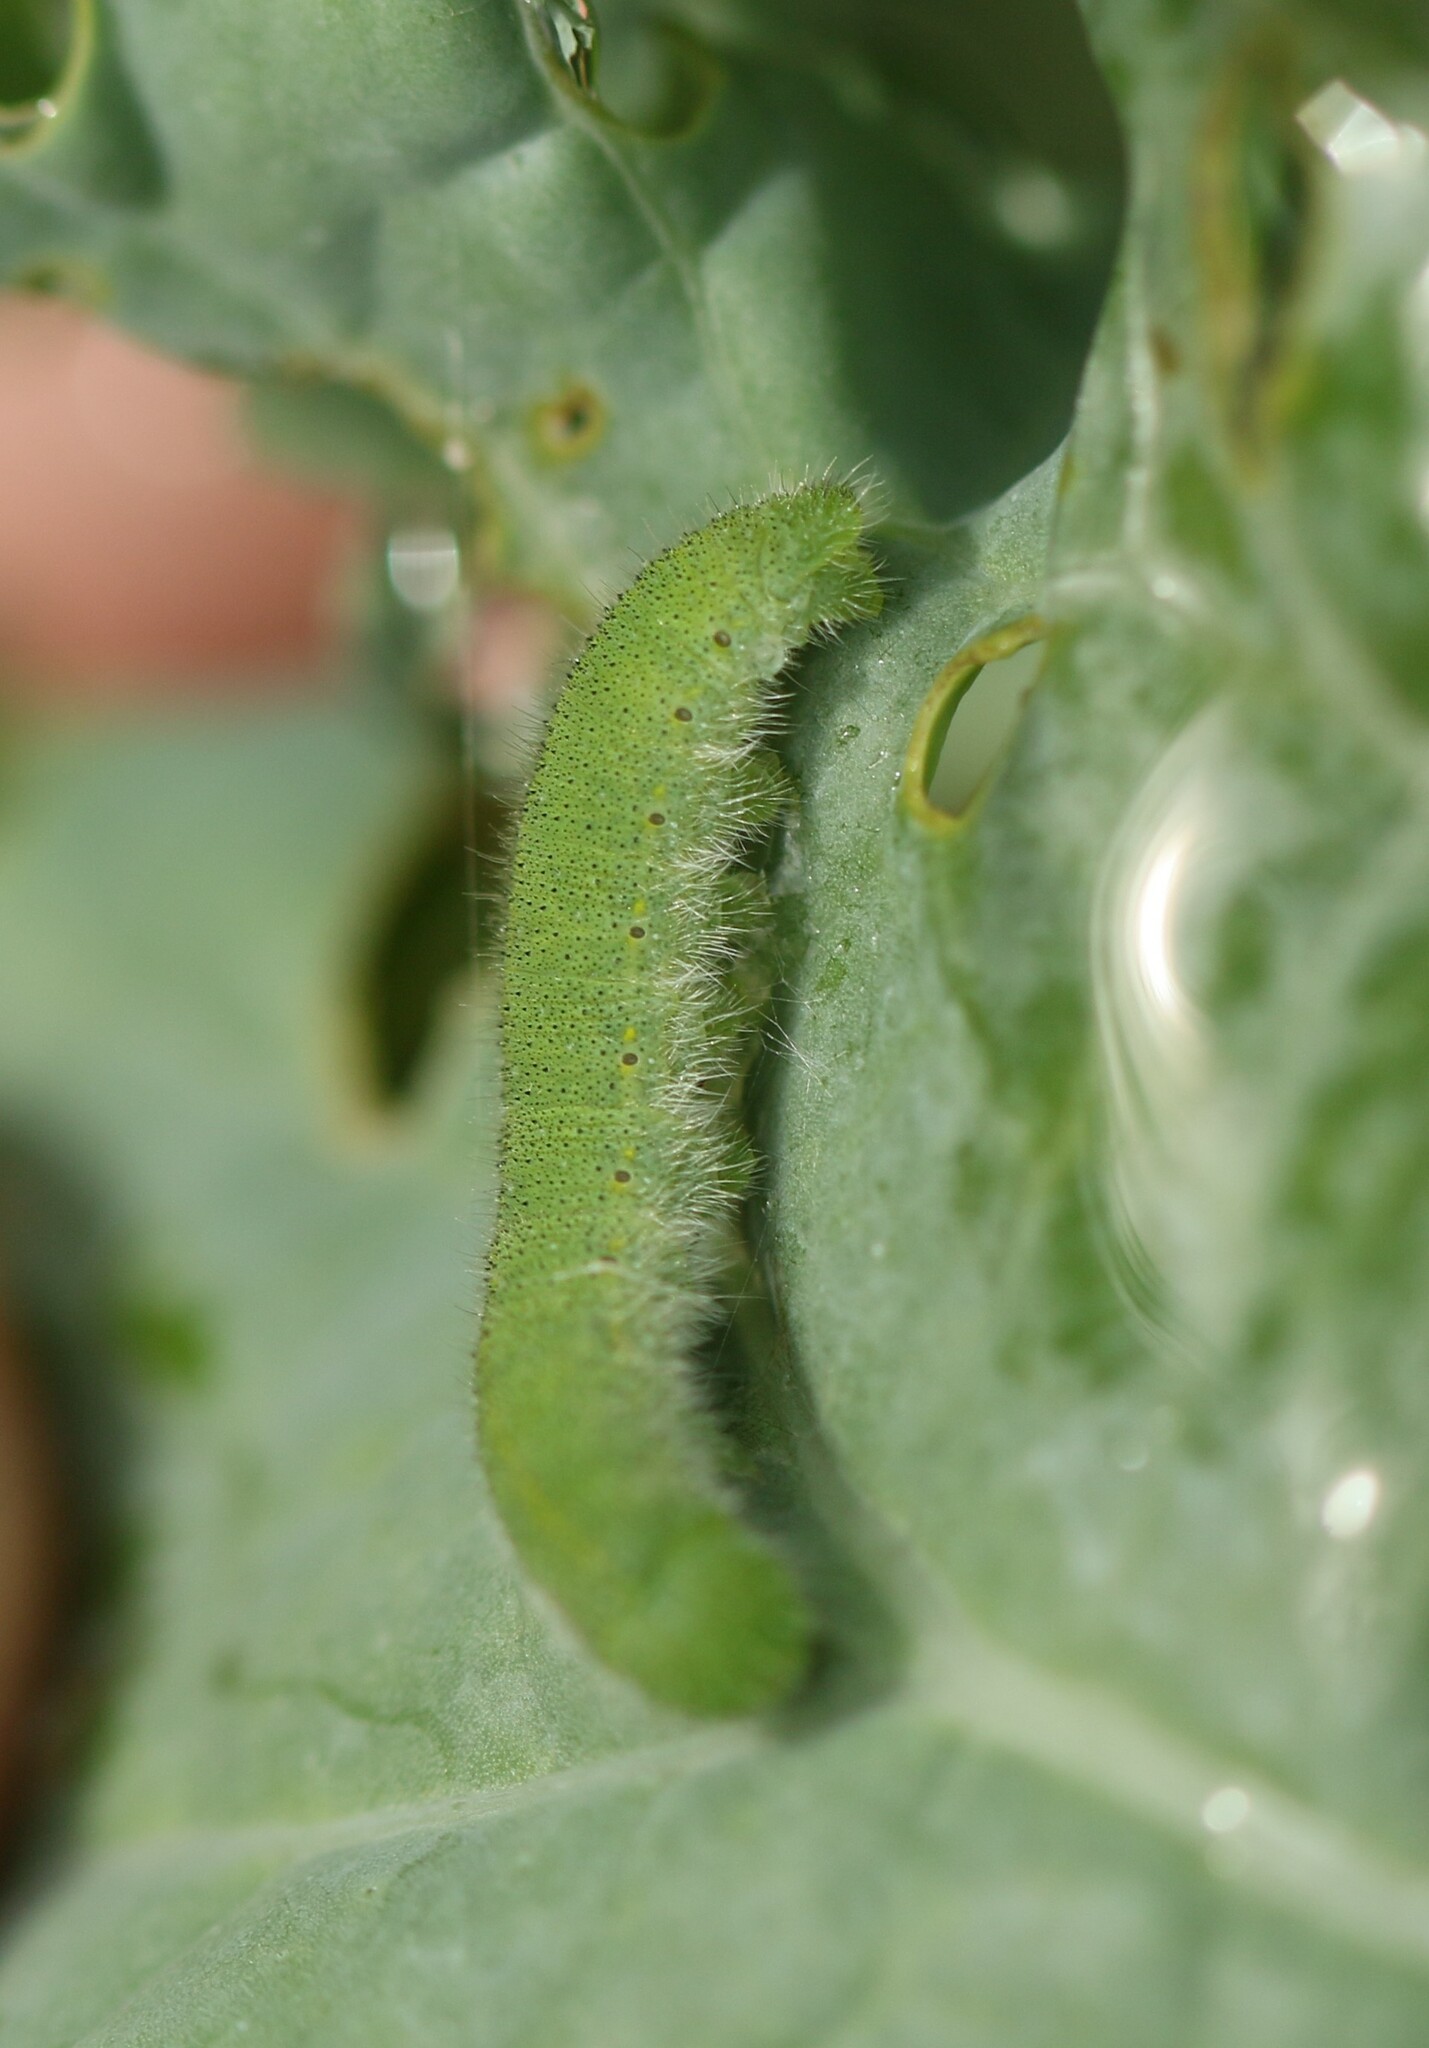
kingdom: Animalia
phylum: Arthropoda
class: Insecta
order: Lepidoptera
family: Pieridae
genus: Pieris
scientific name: Pieris rapae
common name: Small white
